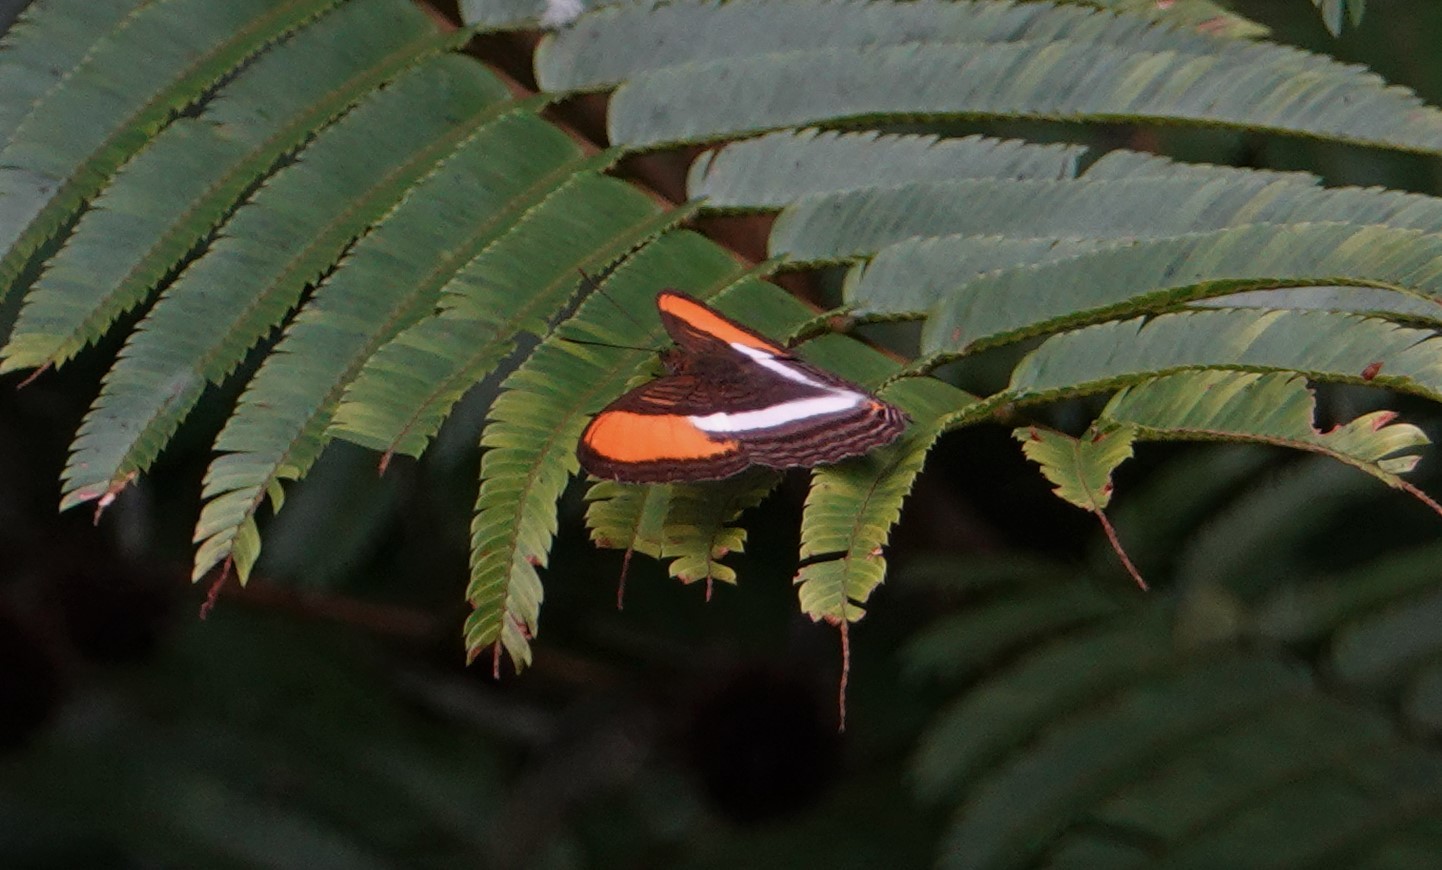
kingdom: Animalia
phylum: Arthropoda
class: Insecta
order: Lepidoptera
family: Nymphalidae
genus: Limenitis
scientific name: Limenitis cytherea
